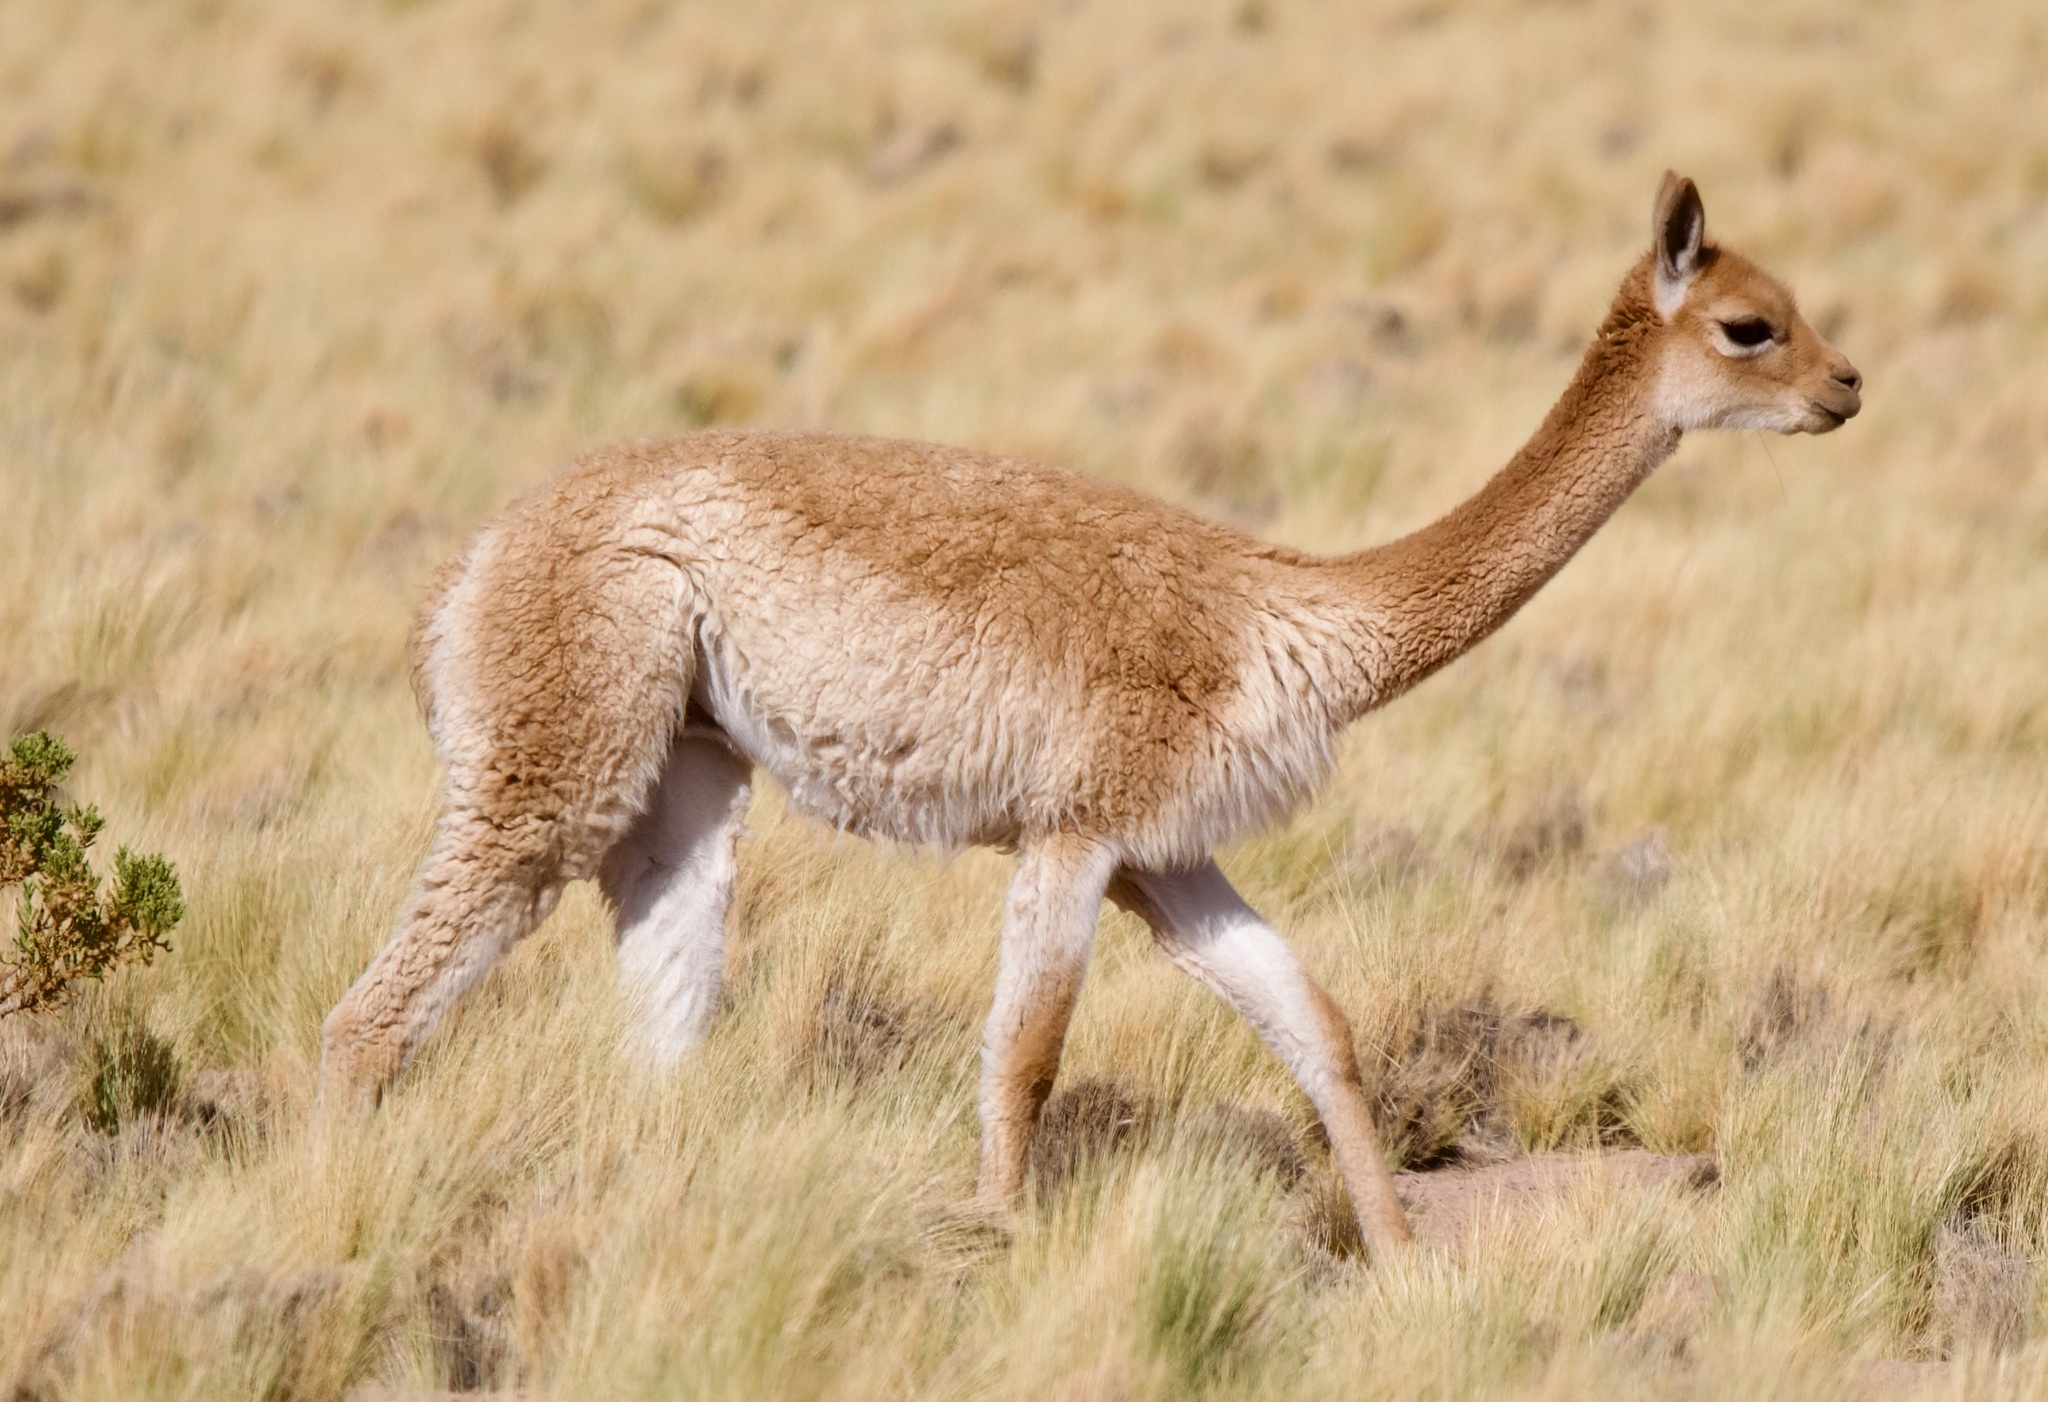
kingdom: Animalia
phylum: Chordata
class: Mammalia
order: Artiodactyla
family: Camelidae
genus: Vicugna
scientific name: Vicugna vicugna
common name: Vicugna
